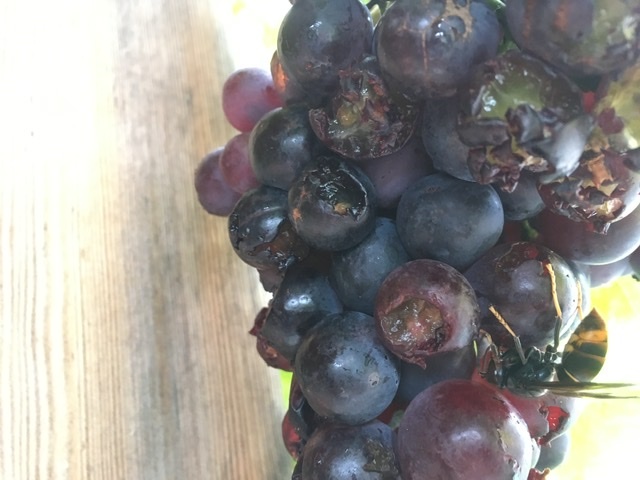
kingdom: Animalia
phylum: Arthropoda
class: Insecta
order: Hymenoptera
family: Vespidae
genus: Vespa
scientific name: Vespa velutina
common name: Asian hornet
